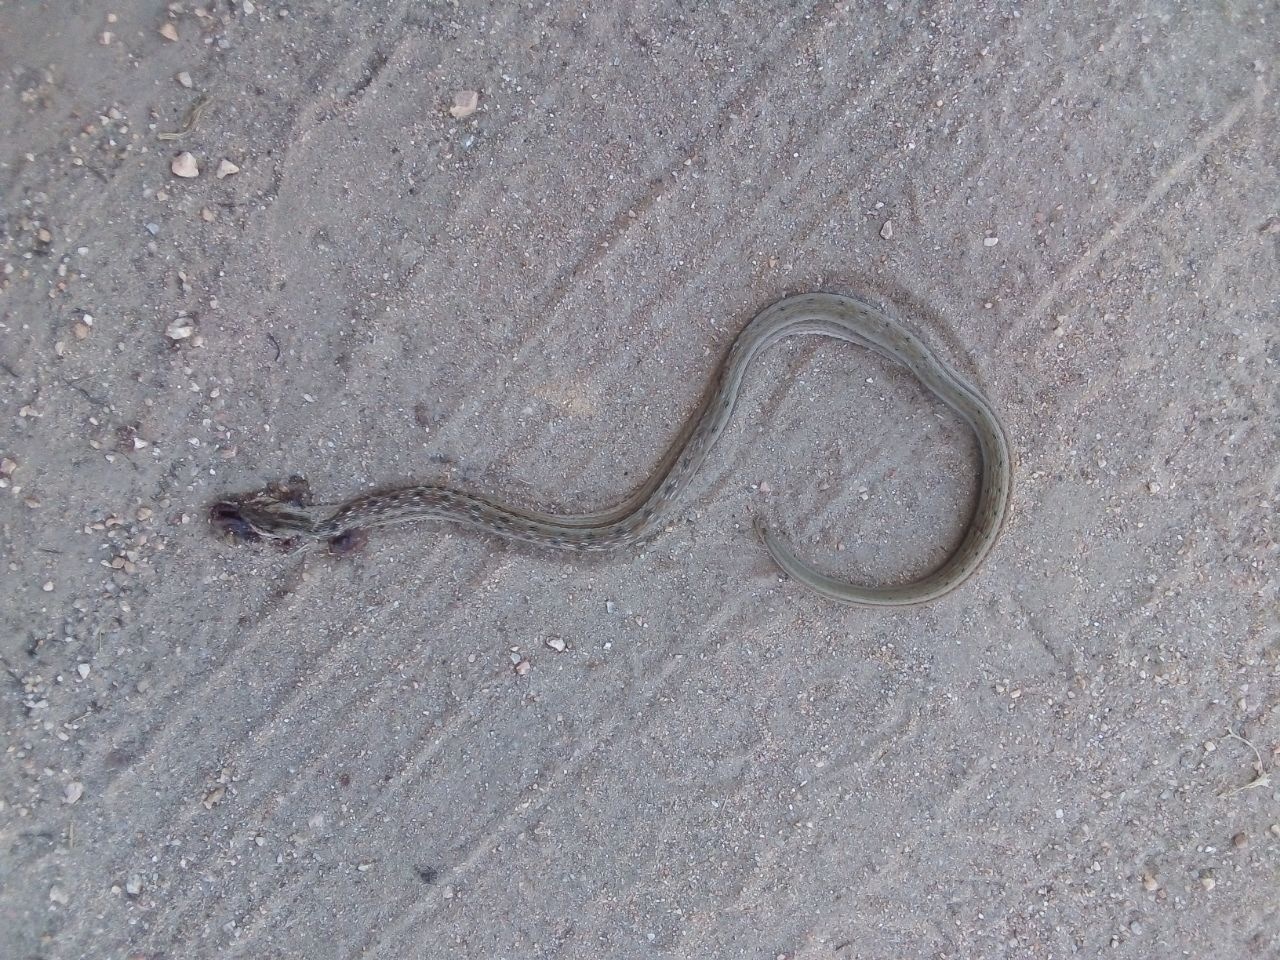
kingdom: Animalia
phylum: Chordata
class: Squamata
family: Colubridae
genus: Dryophylax
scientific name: Dryophylax
